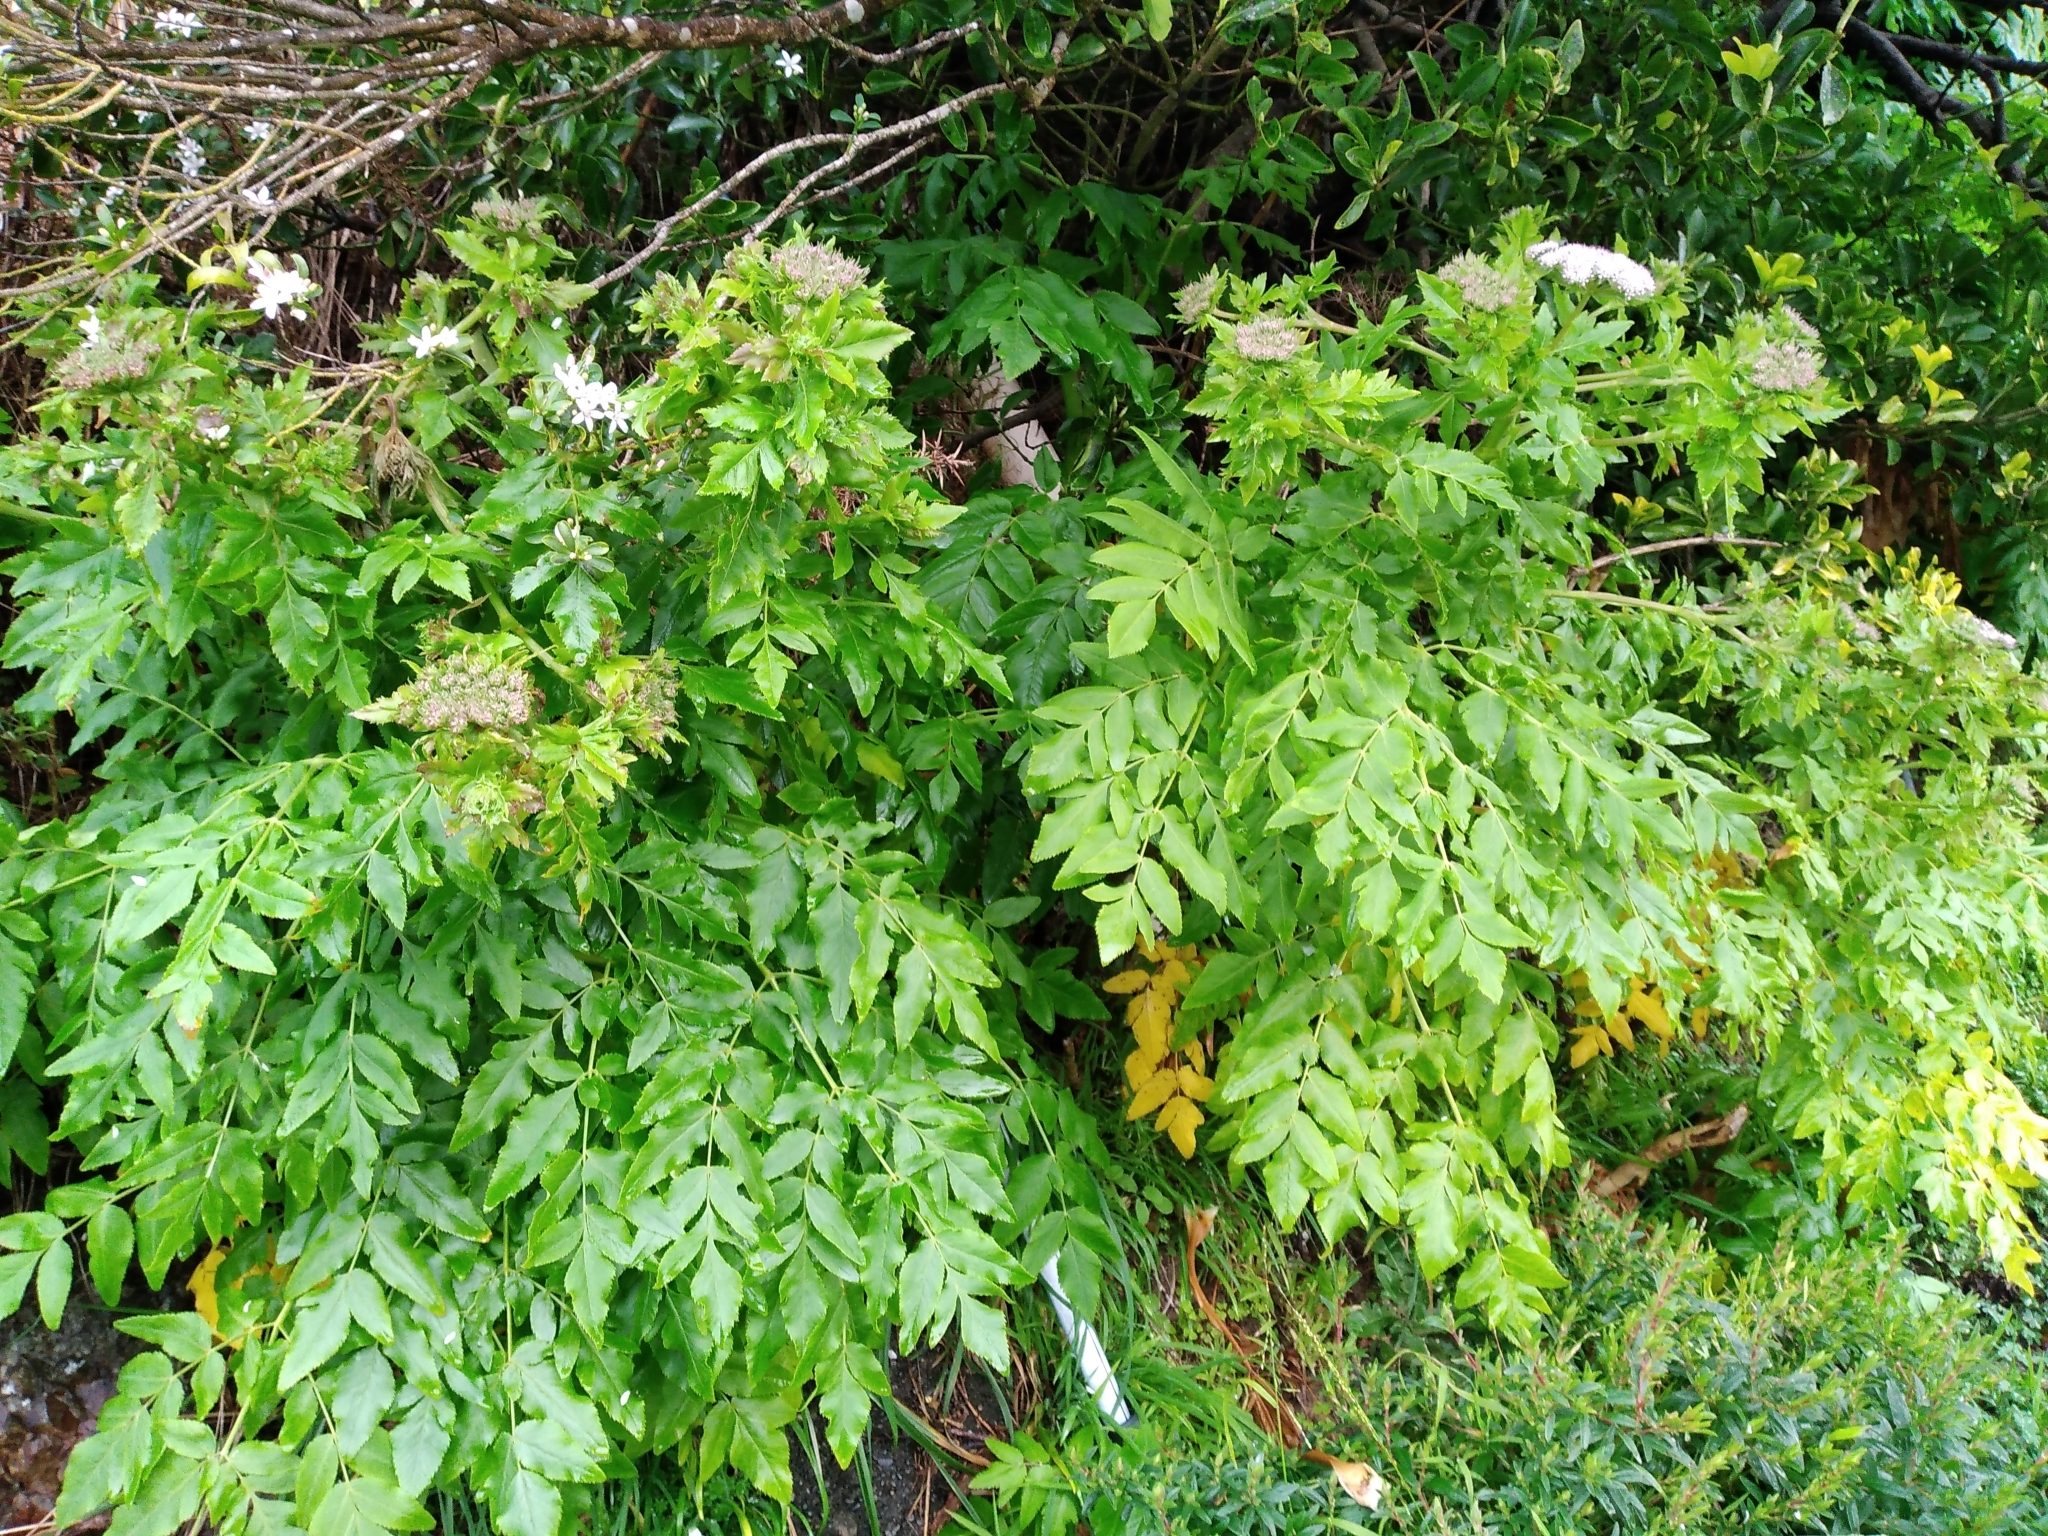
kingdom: Plantae
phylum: Tracheophyta
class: Magnoliopsida
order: Apiales
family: Apiaceae
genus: Daucus
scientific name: Daucus decipiens
